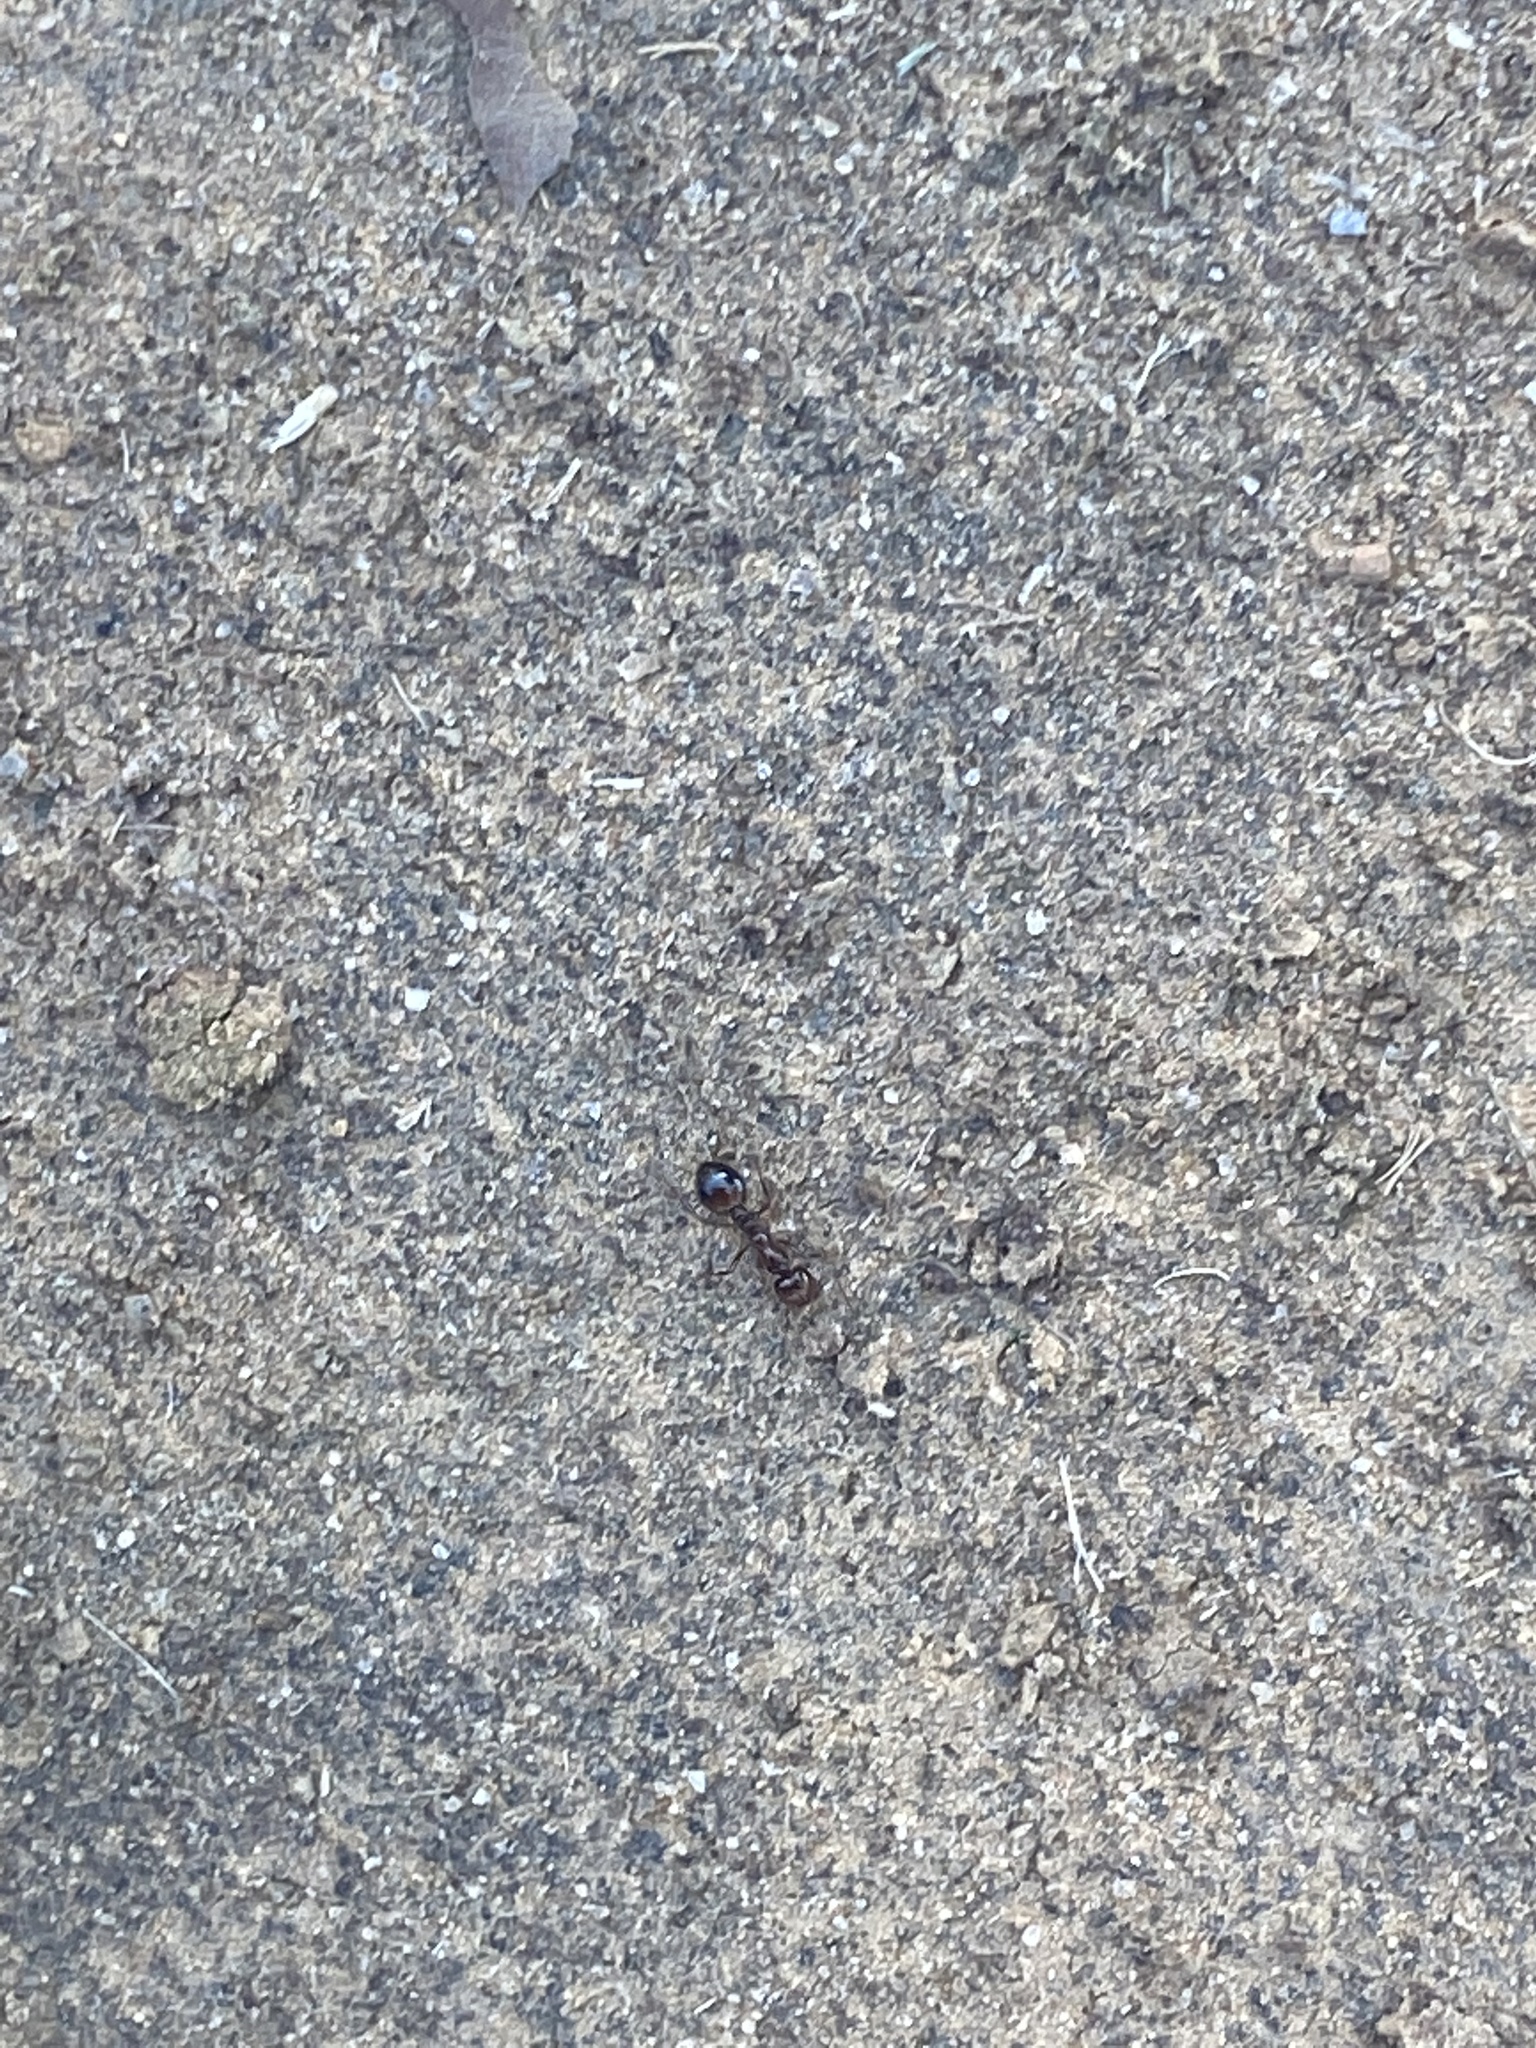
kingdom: Animalia
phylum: Arthropoda
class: Insecta
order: Hymenoptera
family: Formicidae
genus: Solenopsis
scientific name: Solenopsis invicta
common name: Red imported fire ant
